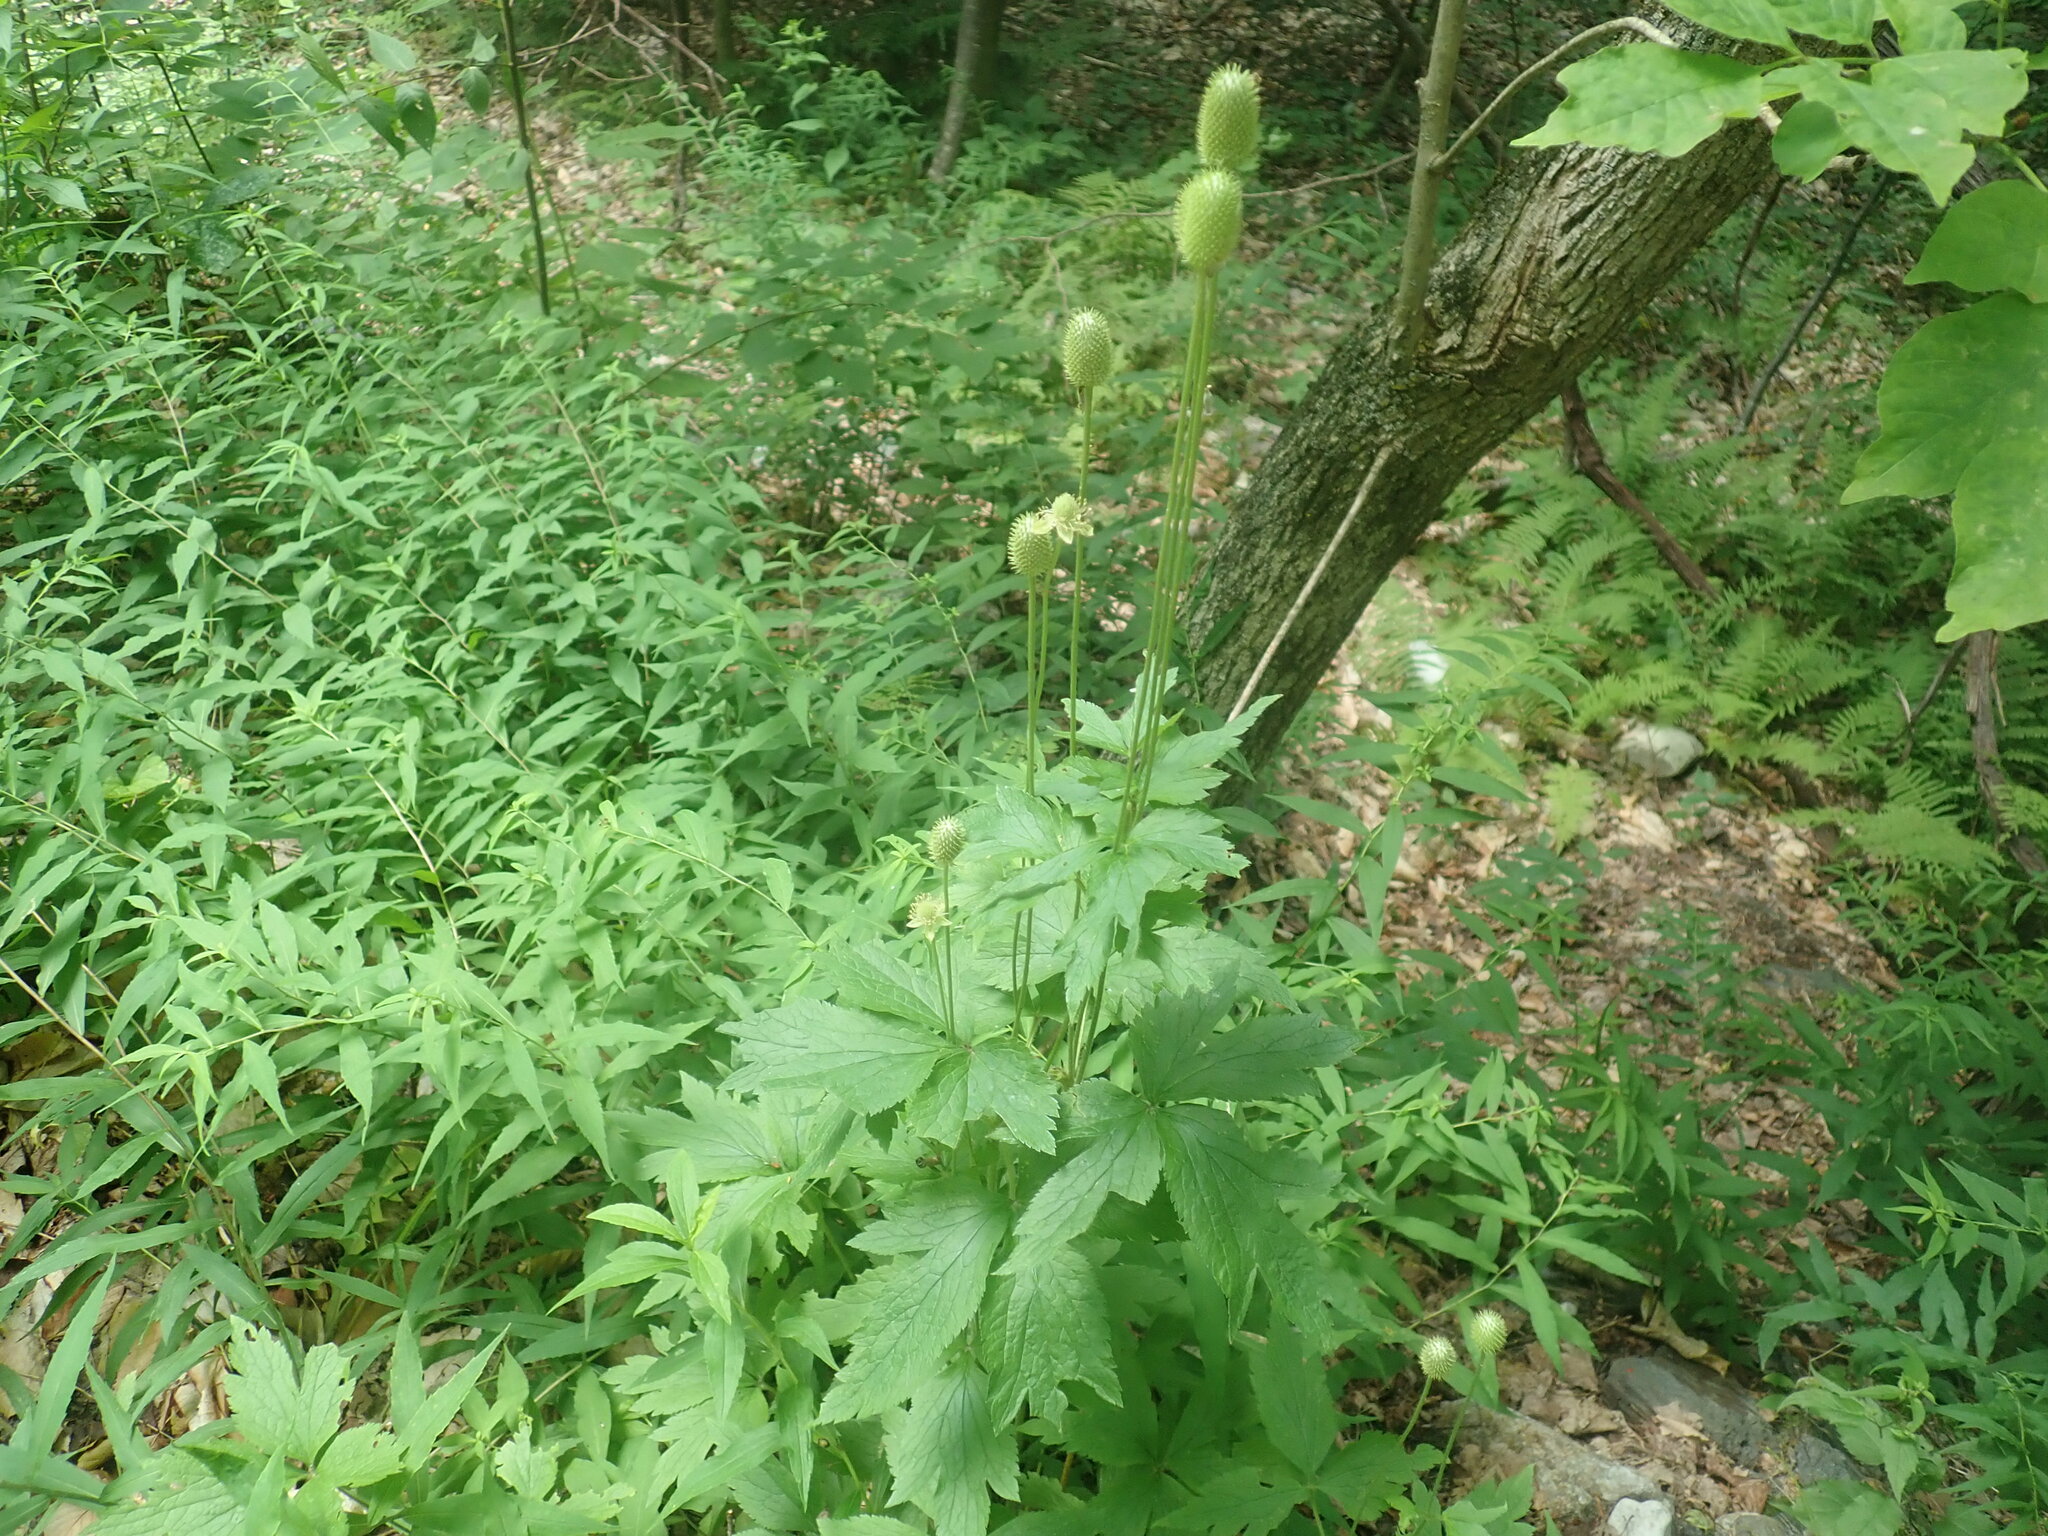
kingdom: Plantae
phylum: Tracheophyta
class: Magnoliopsida
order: Ranunculales
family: Ranunculaceae
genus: Anemone
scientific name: Anemone virginiana
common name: Tall anemone
